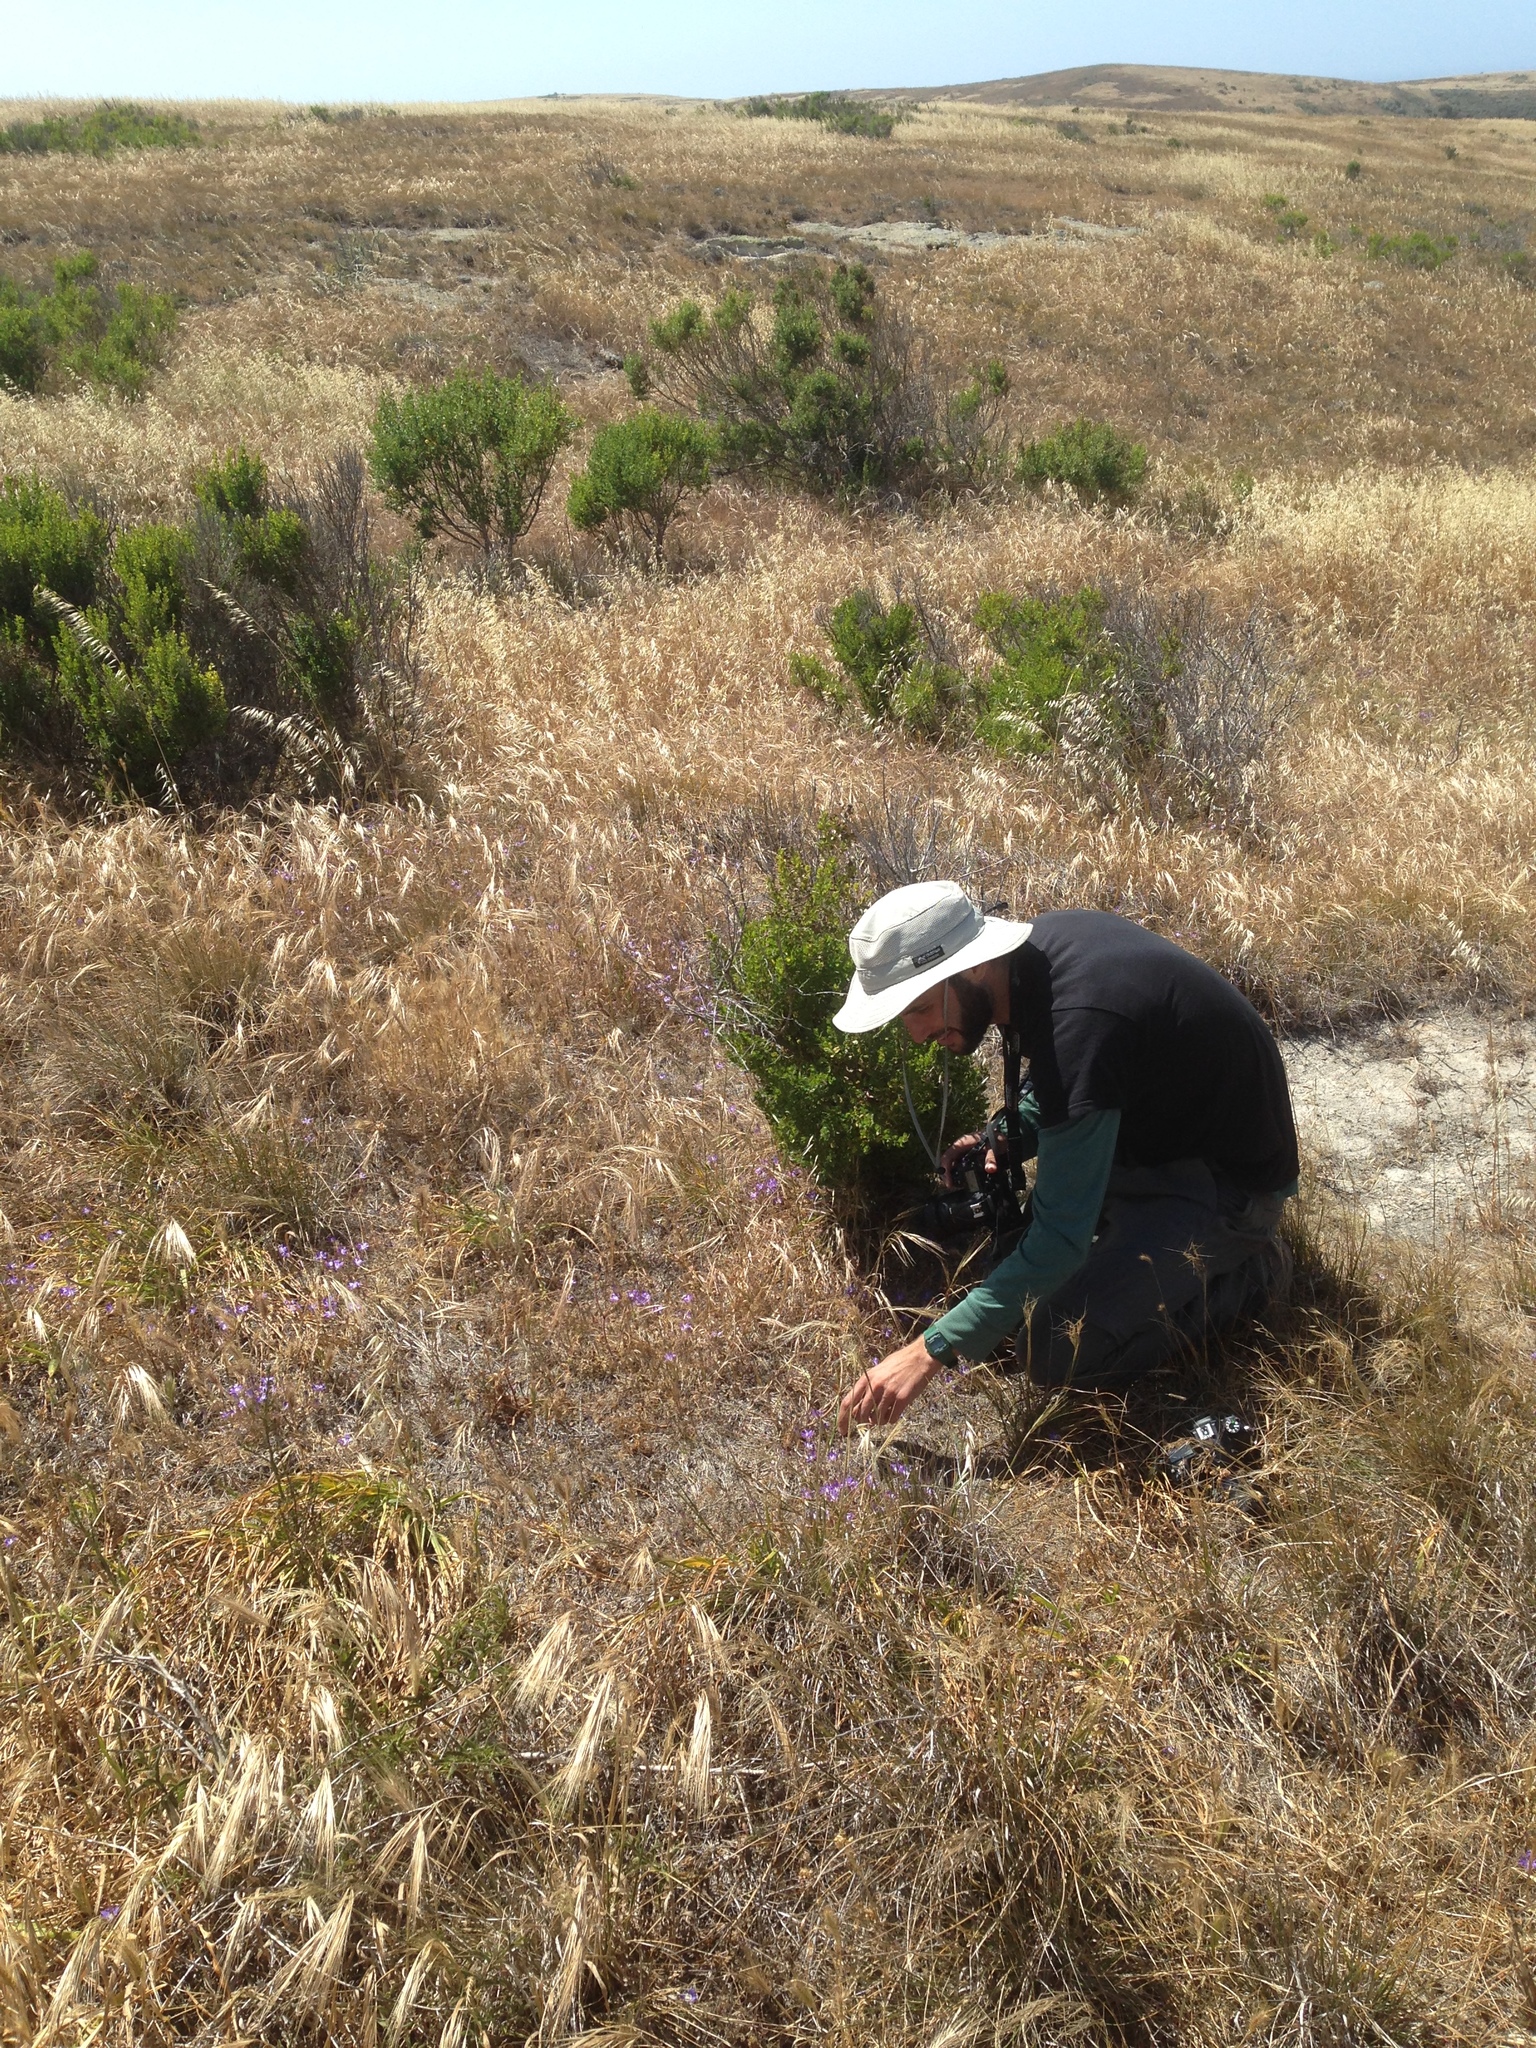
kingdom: Plantae
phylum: Tracheophyta
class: Liliopsida
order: Asparagales
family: Asparagaceae
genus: Brodiaea
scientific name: Brodiaea jolonensis
